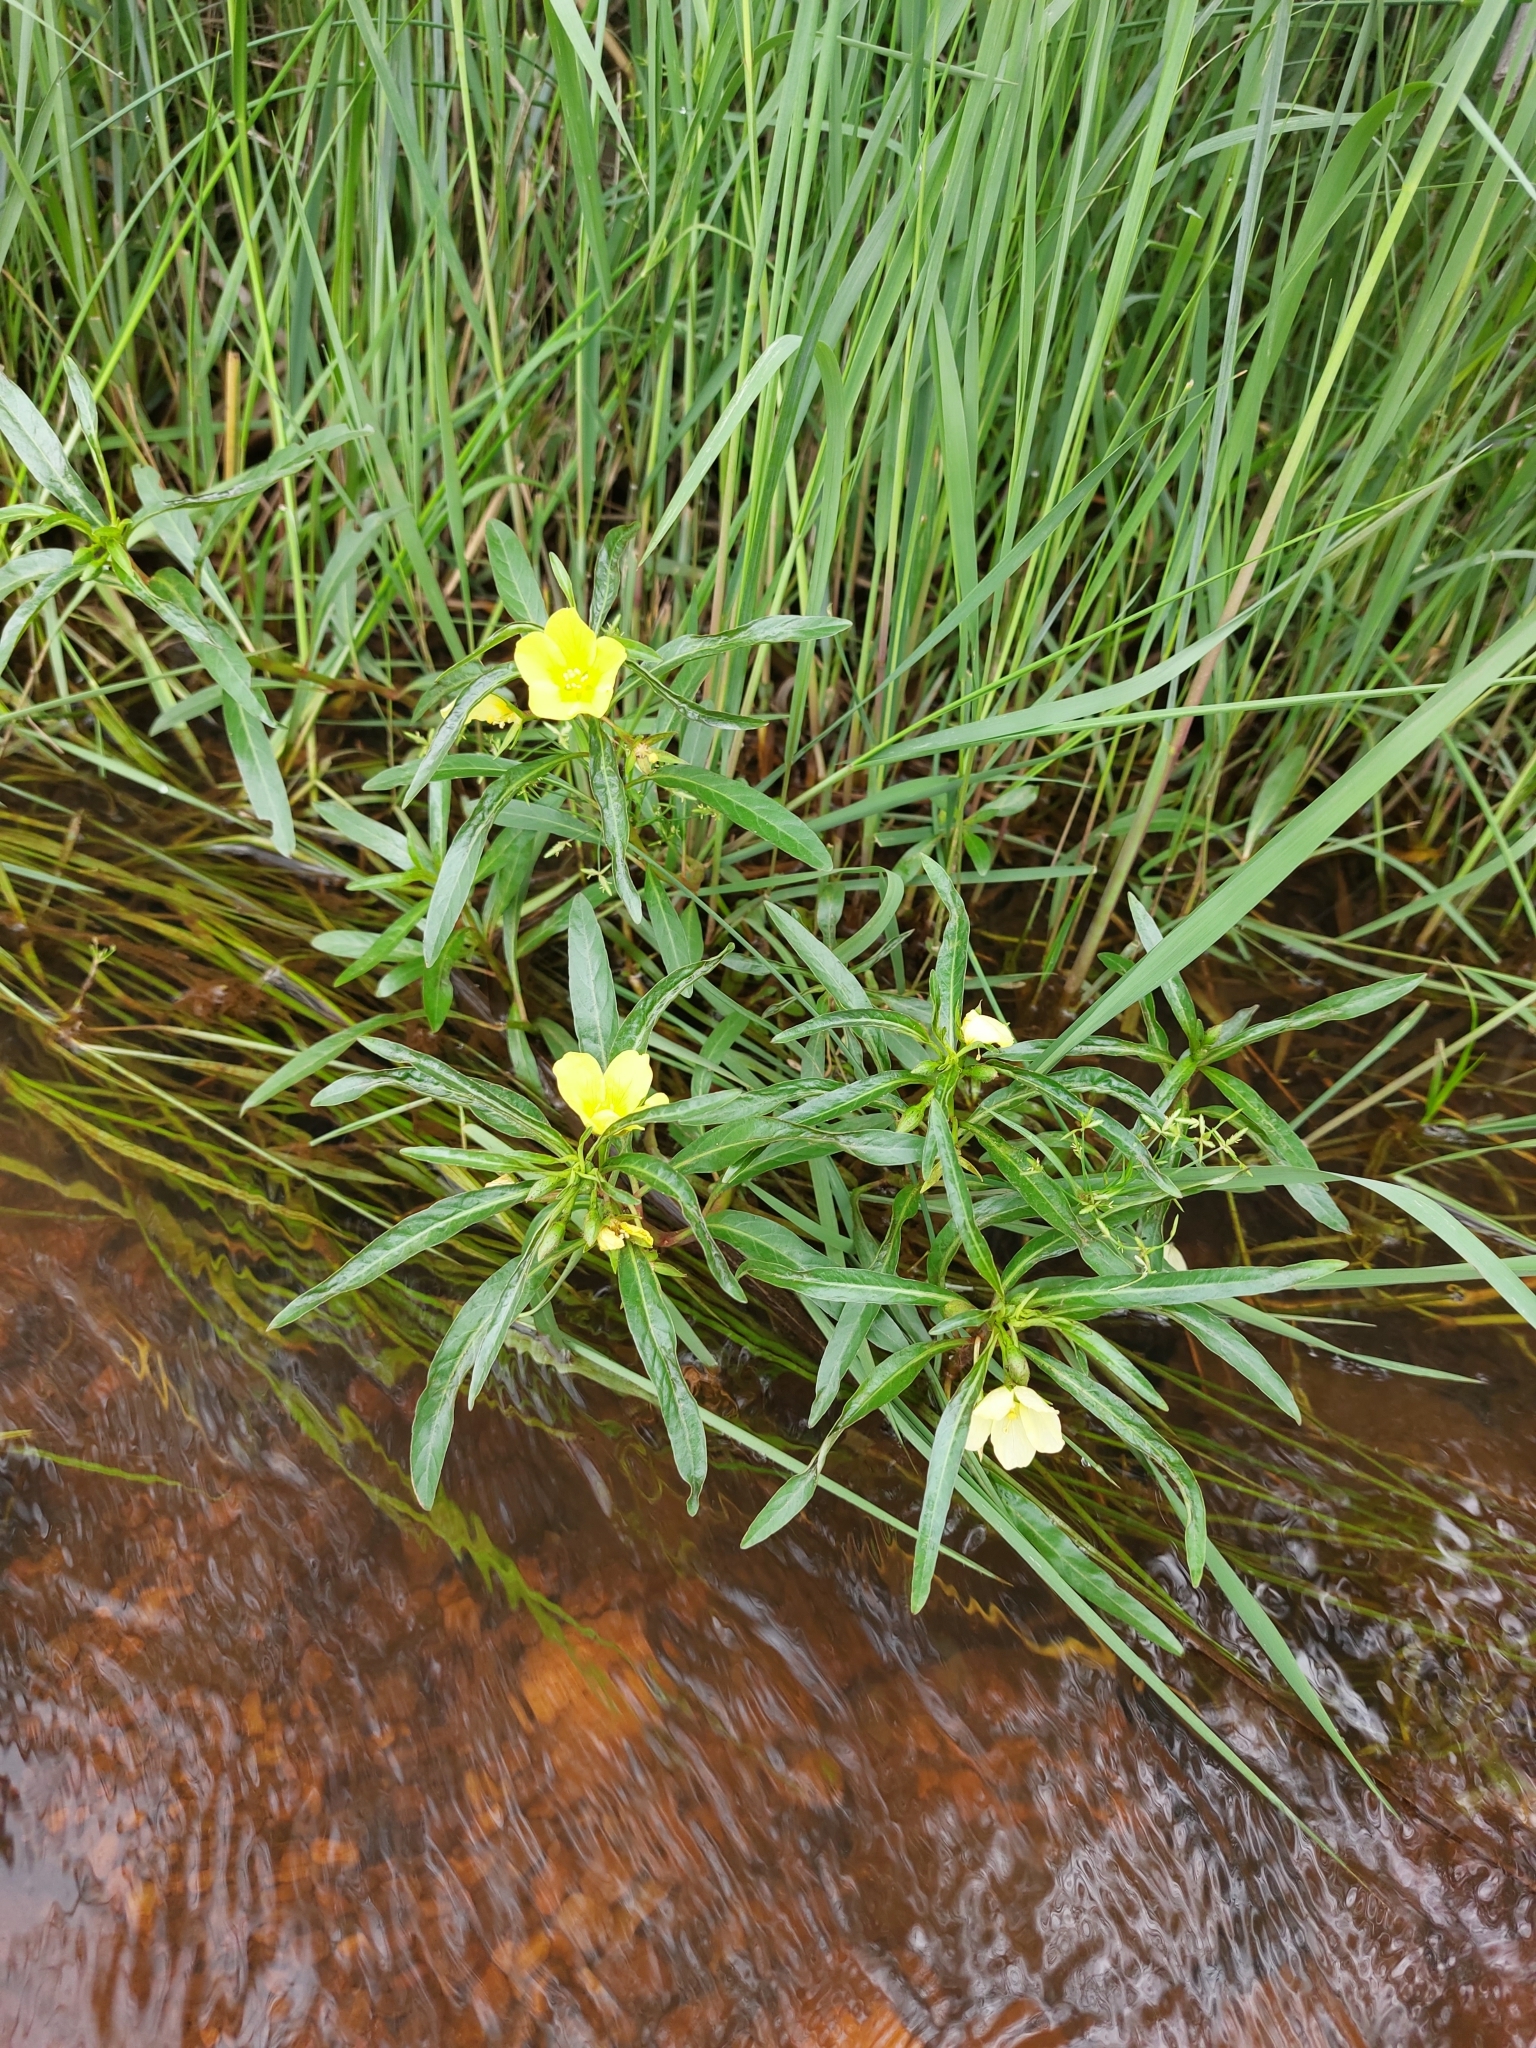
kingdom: Plantae
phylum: Tracheophyta
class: Magnoliopsida
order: Myrtales
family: Onagraceae
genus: Ludwigia
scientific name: Ludwigia adscendens
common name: Creeping water primrose
